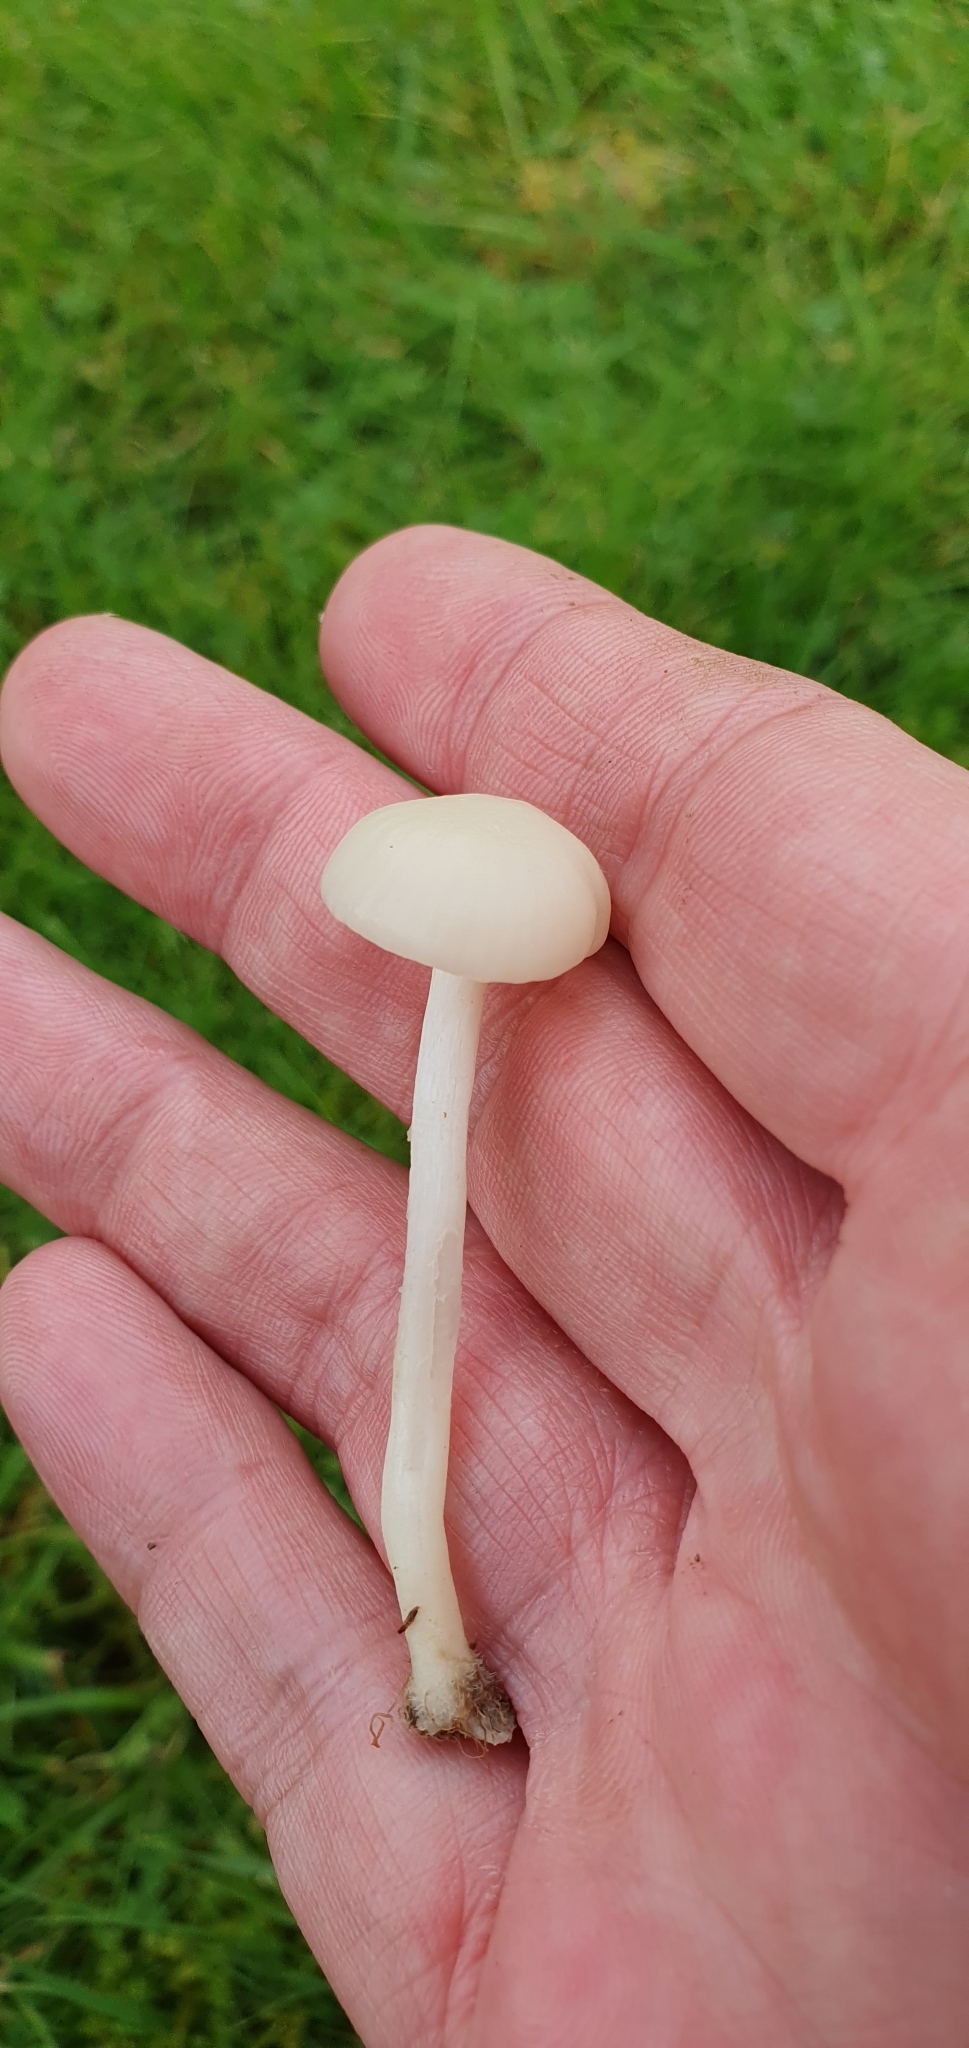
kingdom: Fungi
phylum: Basidiomycota
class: Agaricomycetes
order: Agaricales
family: Hygrophoraceae
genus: Cuphophyllus
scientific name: Cuphophyllus virgineus
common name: Snowy waxcap
